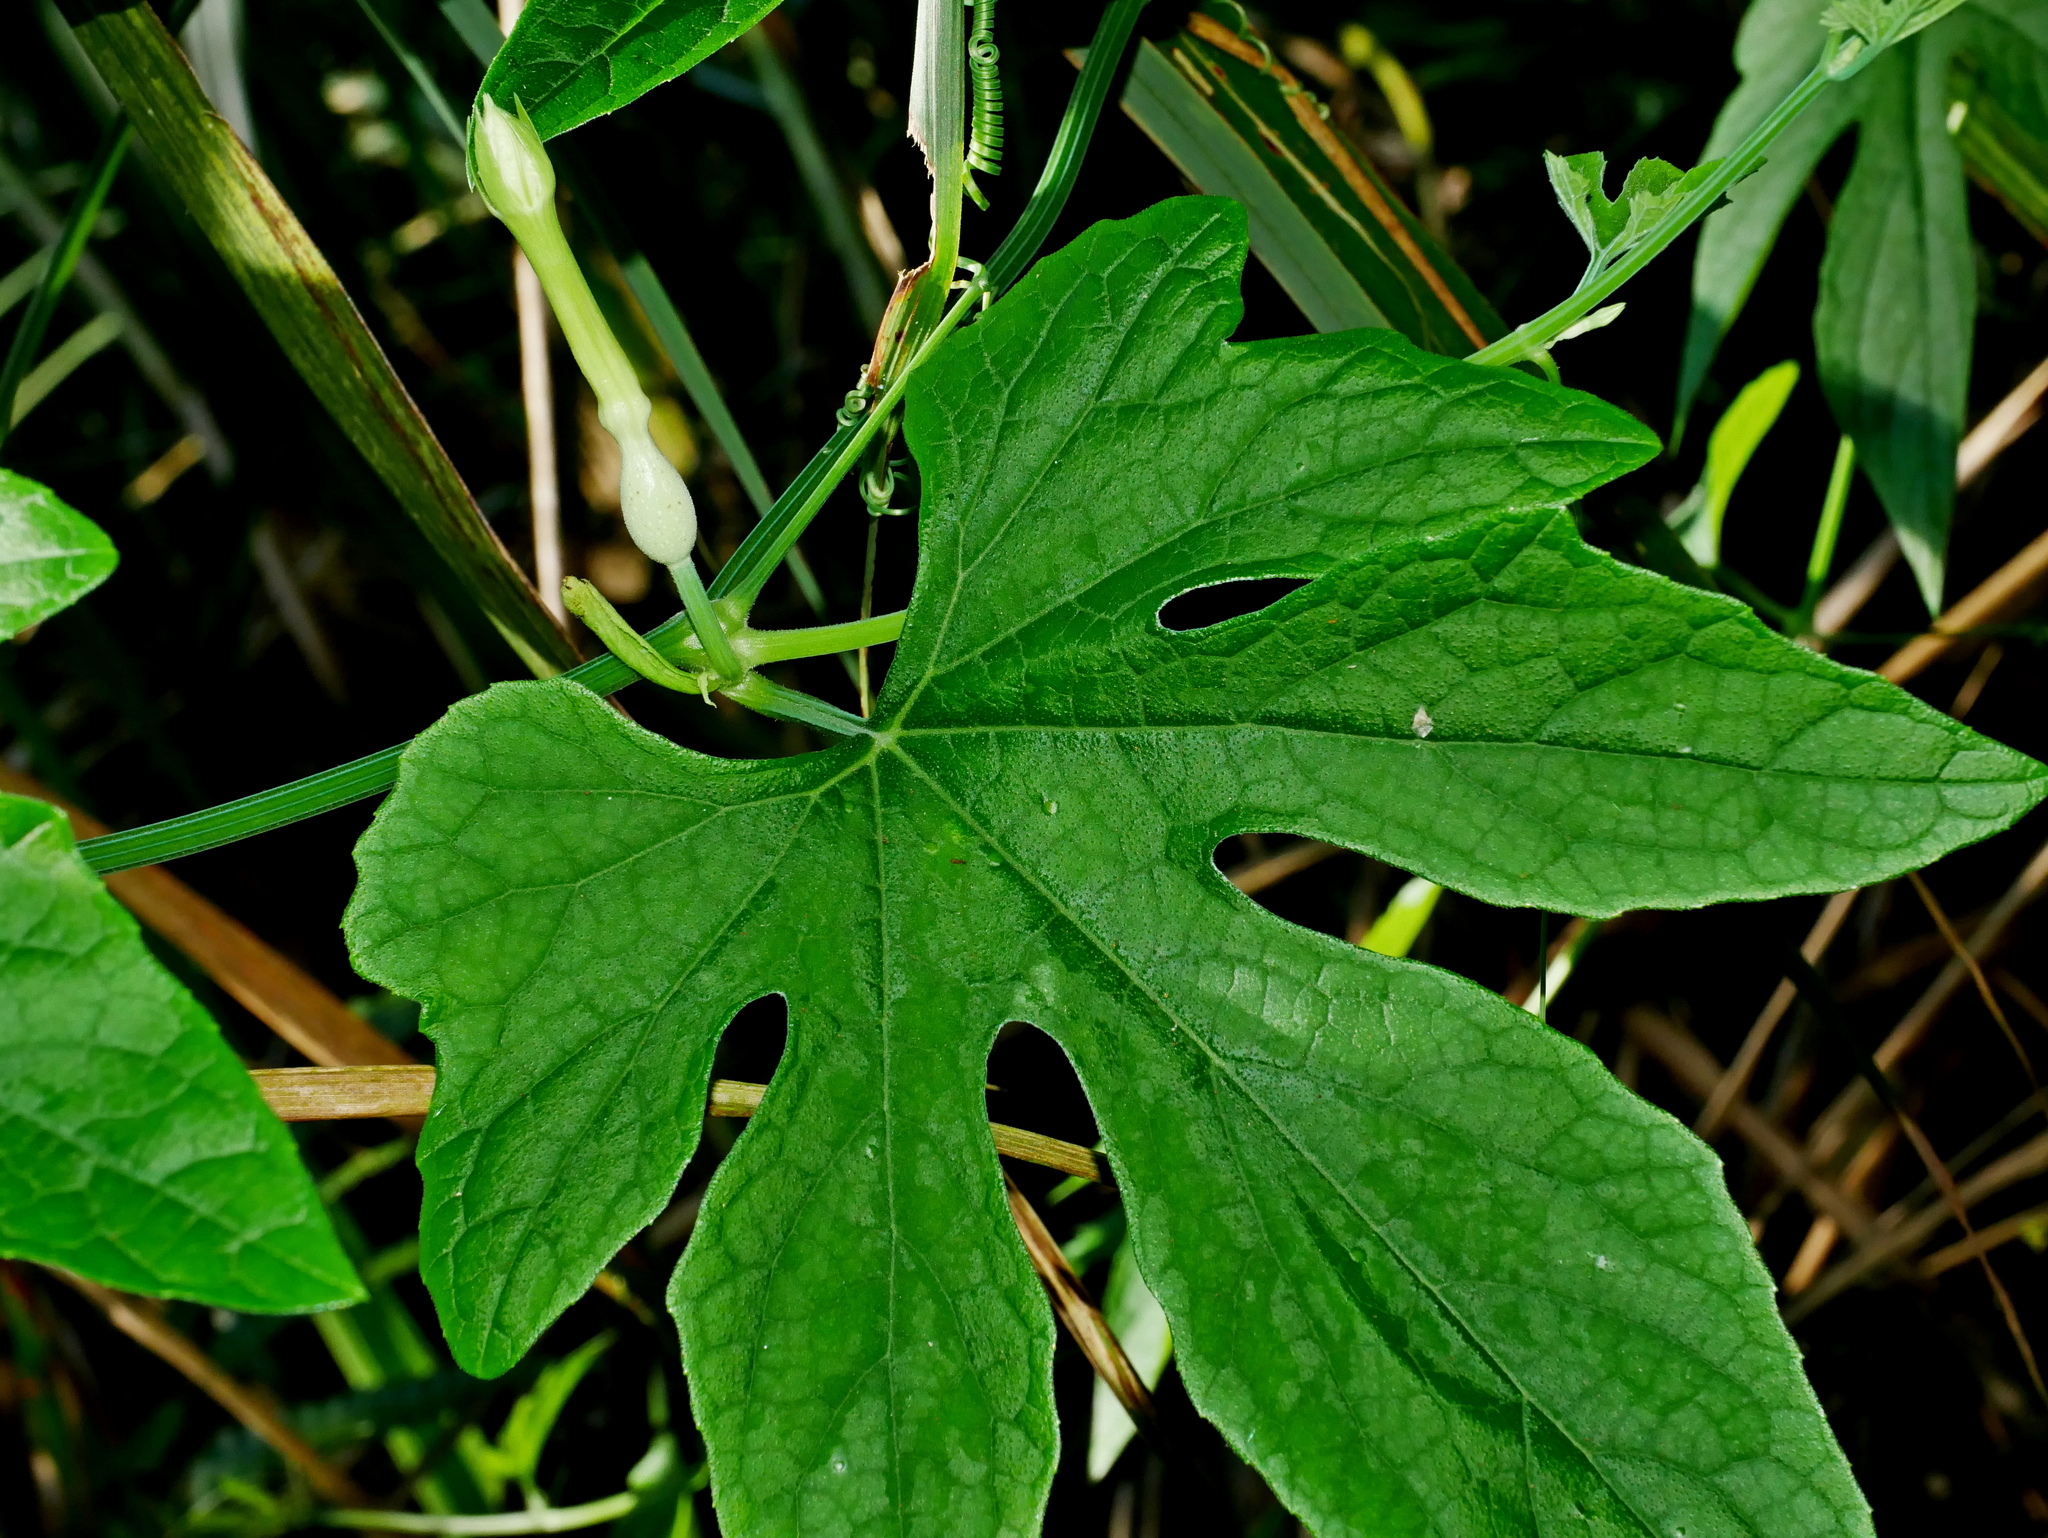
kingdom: Plantae
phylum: Tracheophyta
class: Magnoliopsida
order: Cucurbitales
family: Cucurbitaceae
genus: Trichosanthes
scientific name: Trichosanthes laceribractea
